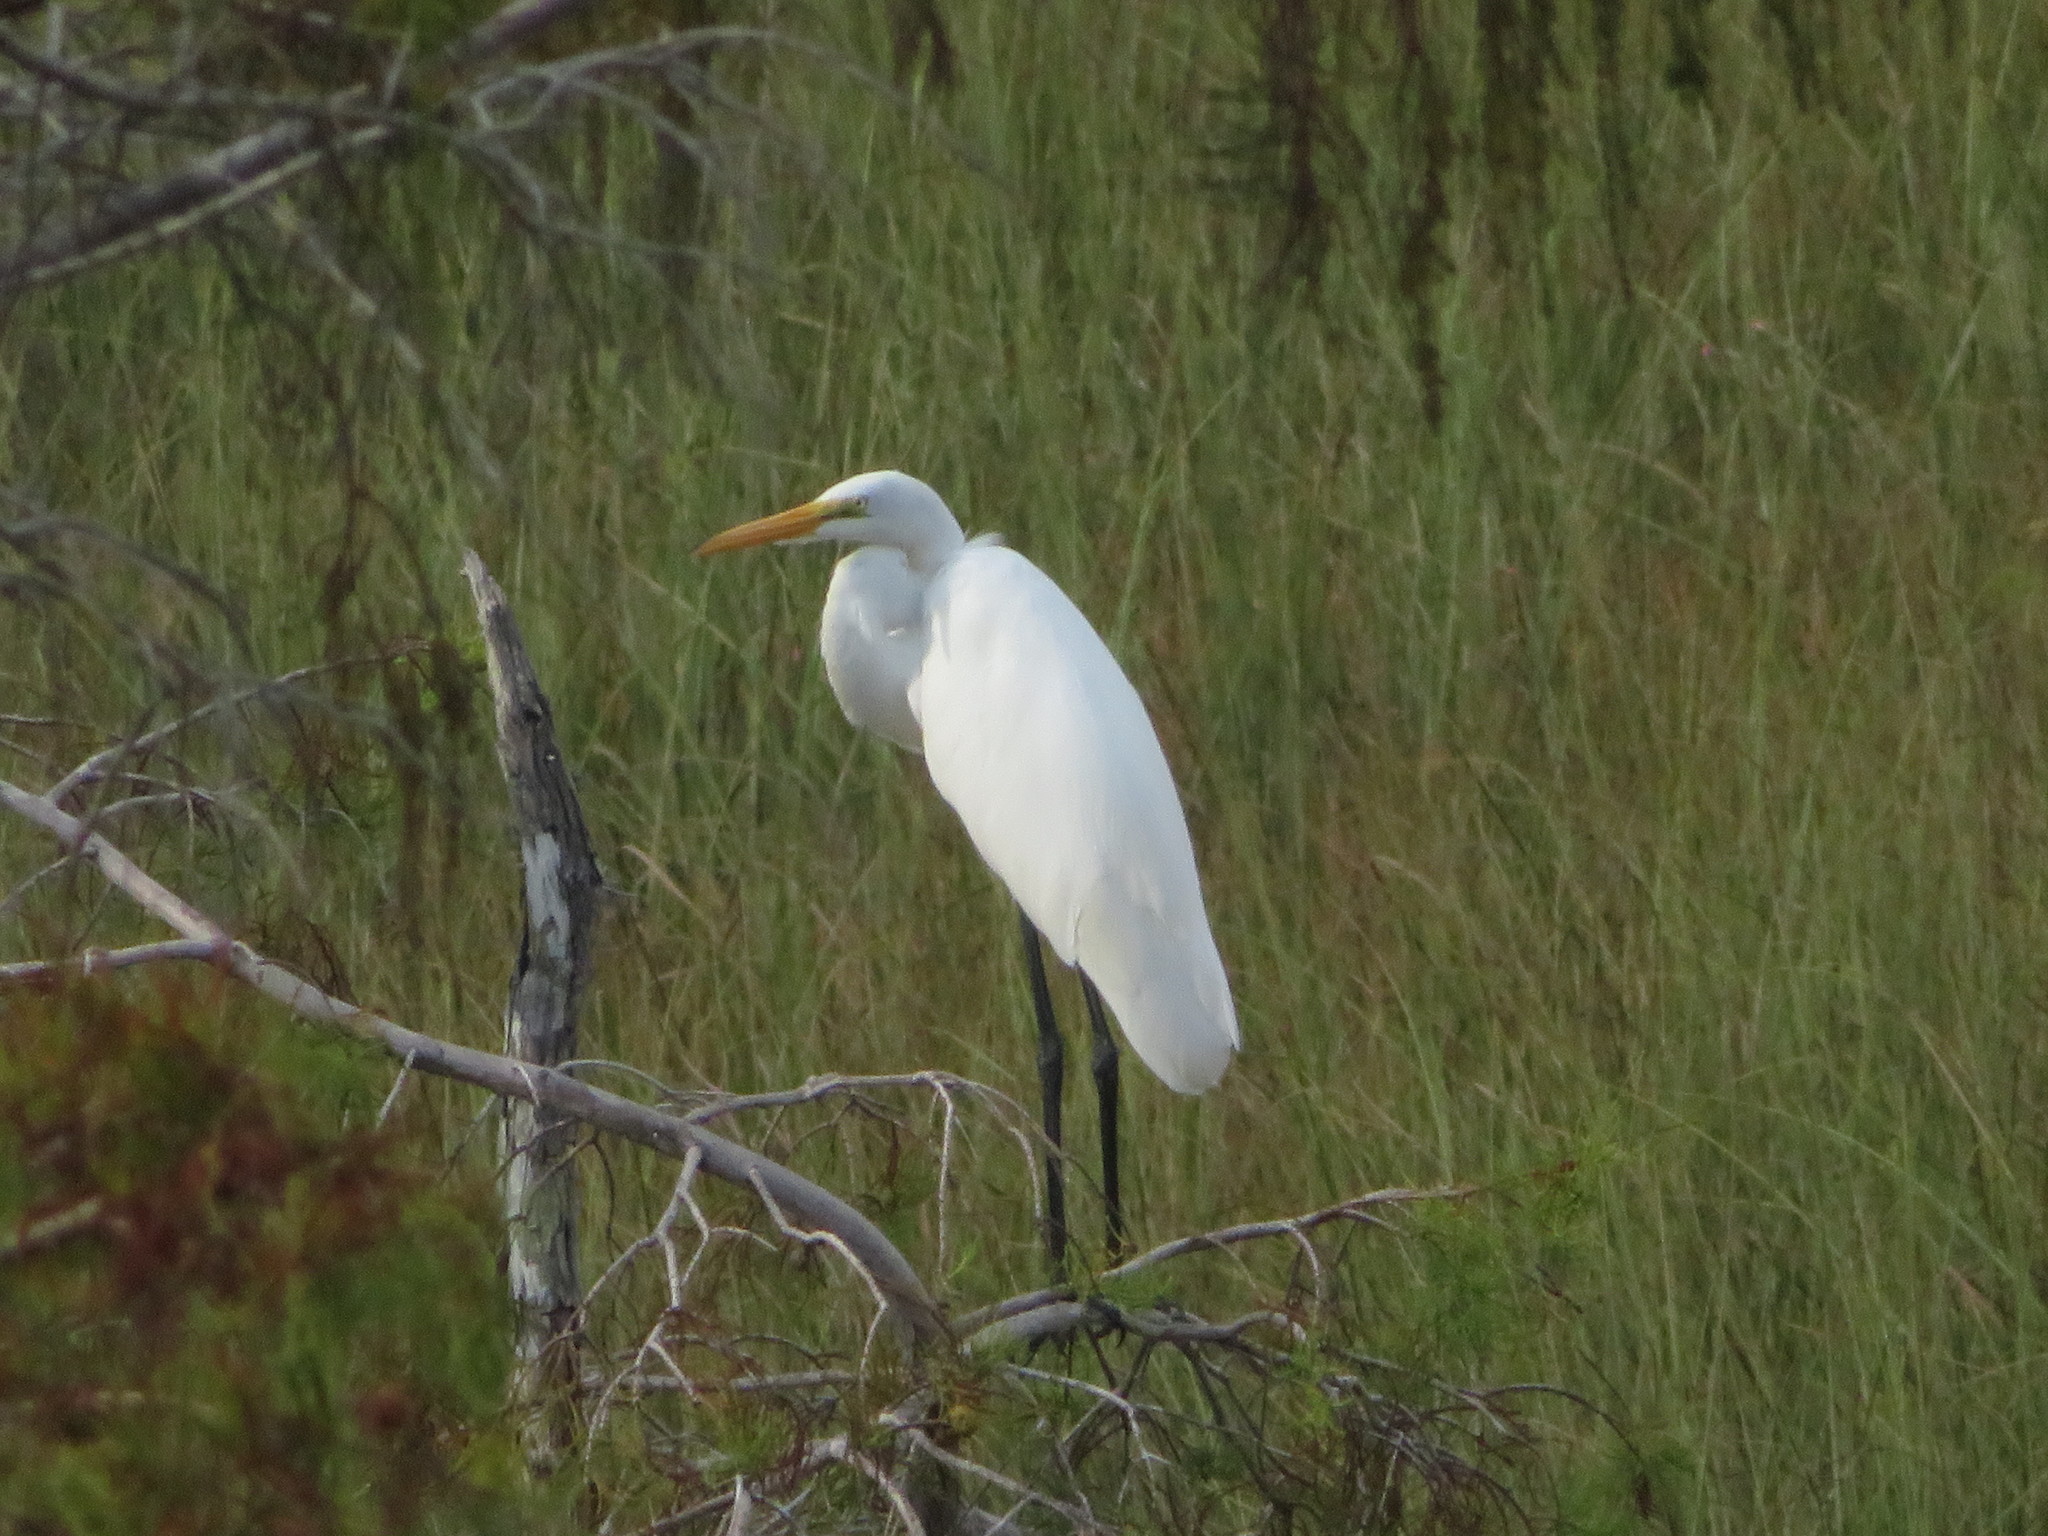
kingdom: Animalia
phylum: Chordata
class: Aves
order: Pelecaniformes
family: Ardeidae
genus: Ardea
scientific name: Ardea alba
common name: Great egret
